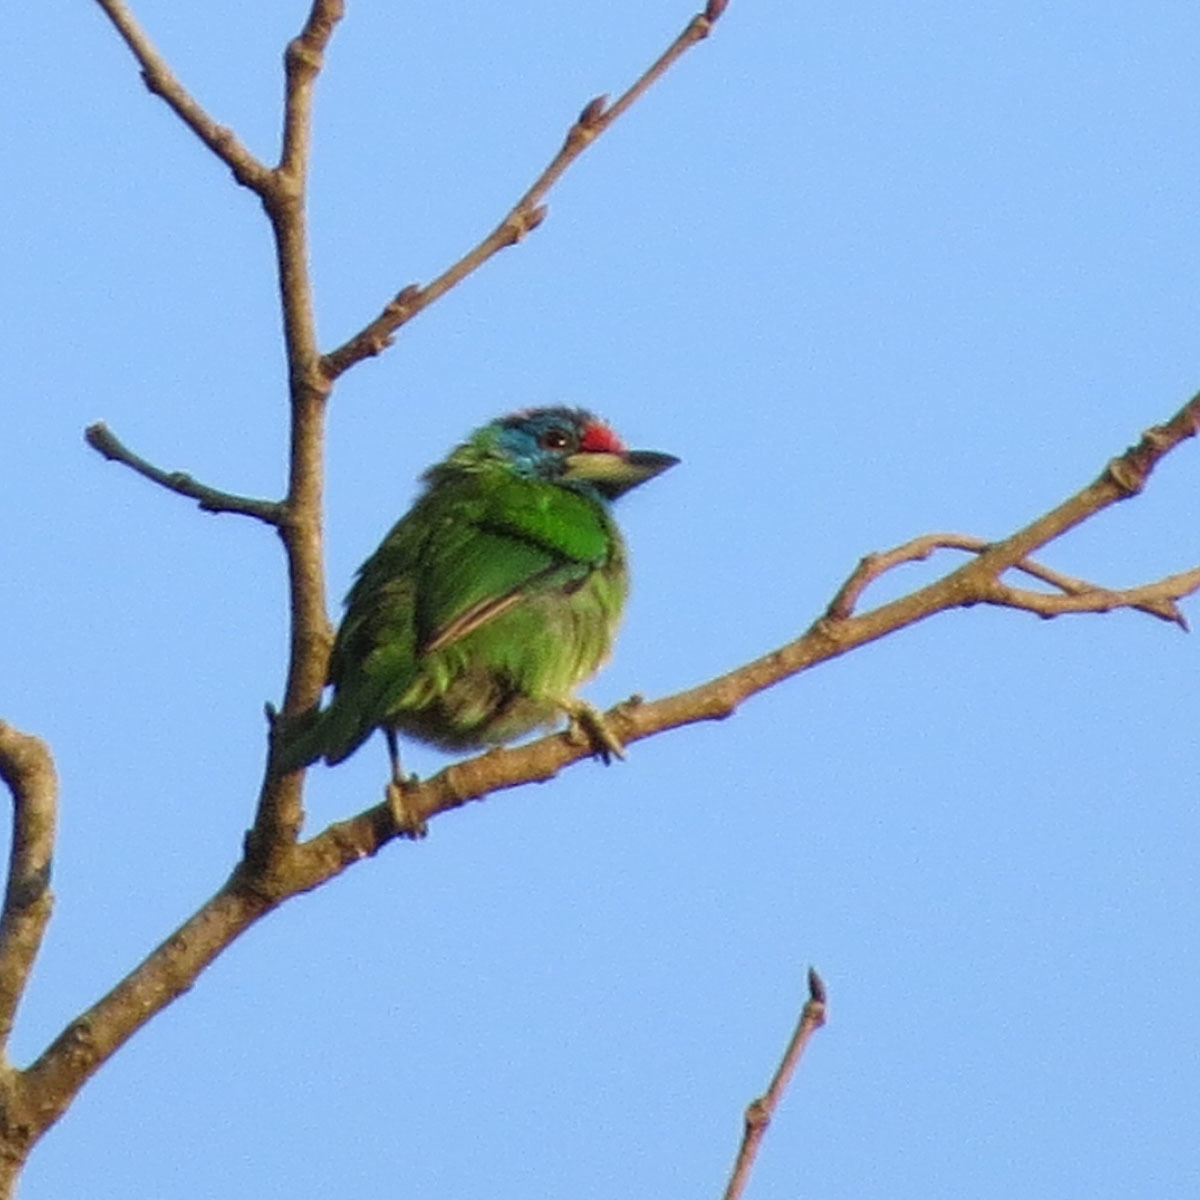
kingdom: Animalia
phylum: Chordata
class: Aves
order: Piciformes
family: Megalaimidae
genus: Psilopogon
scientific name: Psilopogon asiaticus
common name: Blue-throated barbet
